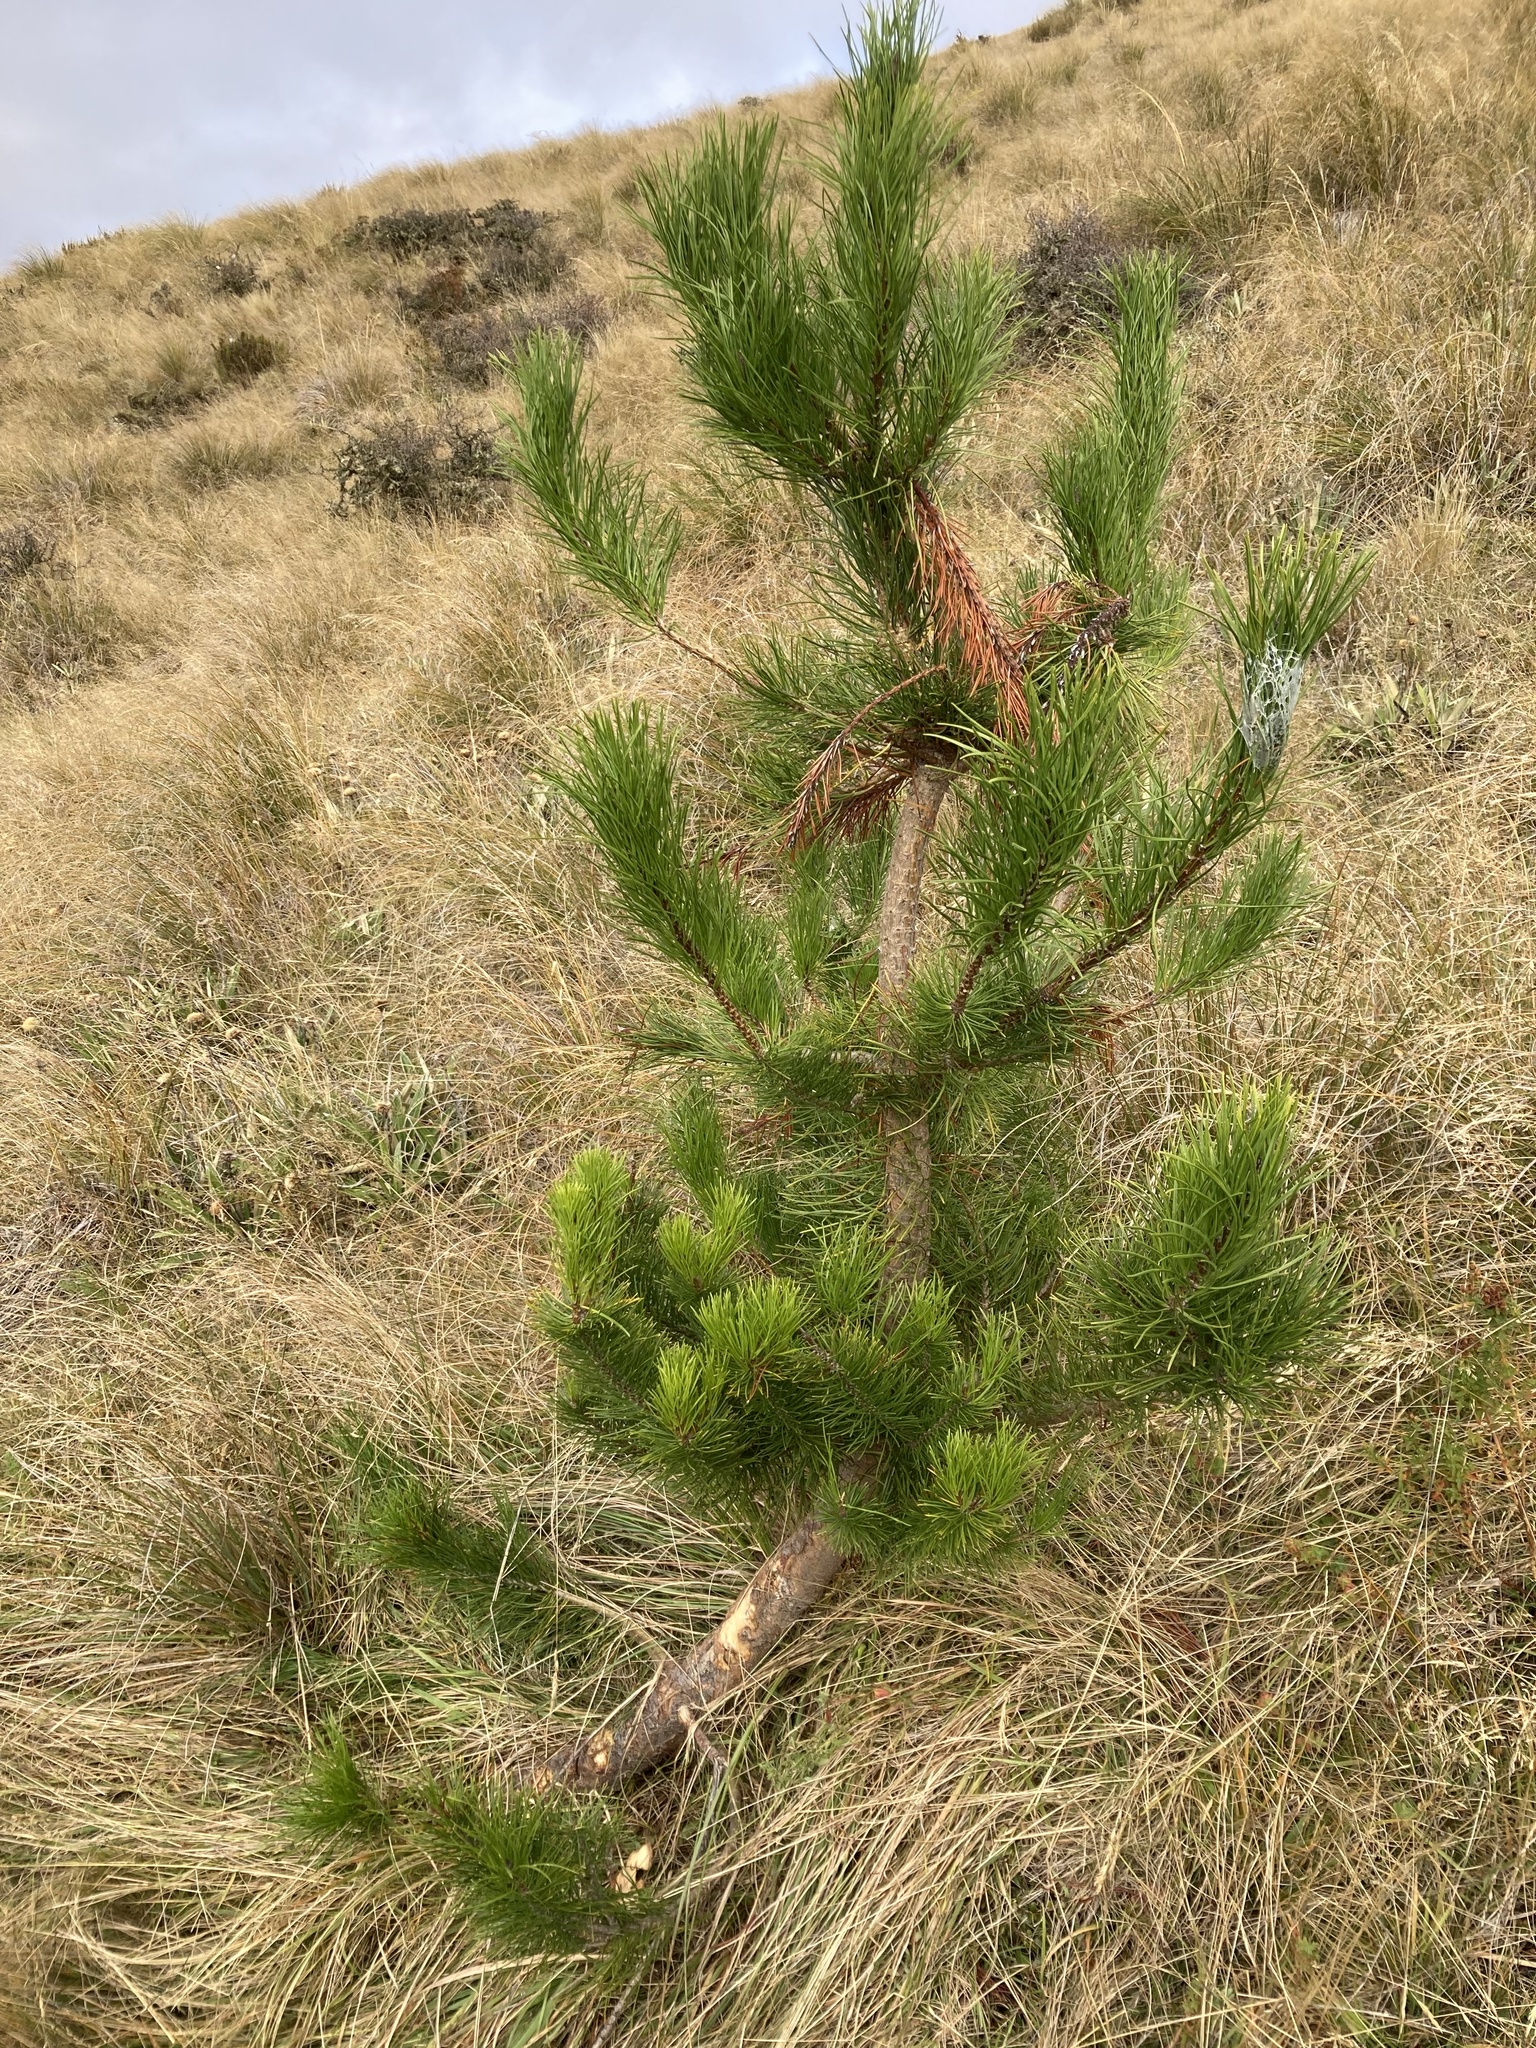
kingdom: Plantae
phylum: Tracheophyta
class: Pinopsida
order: Pinales
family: Pinaceae
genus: Pinus
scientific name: Pinus contorta
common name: Lodgepole pine
